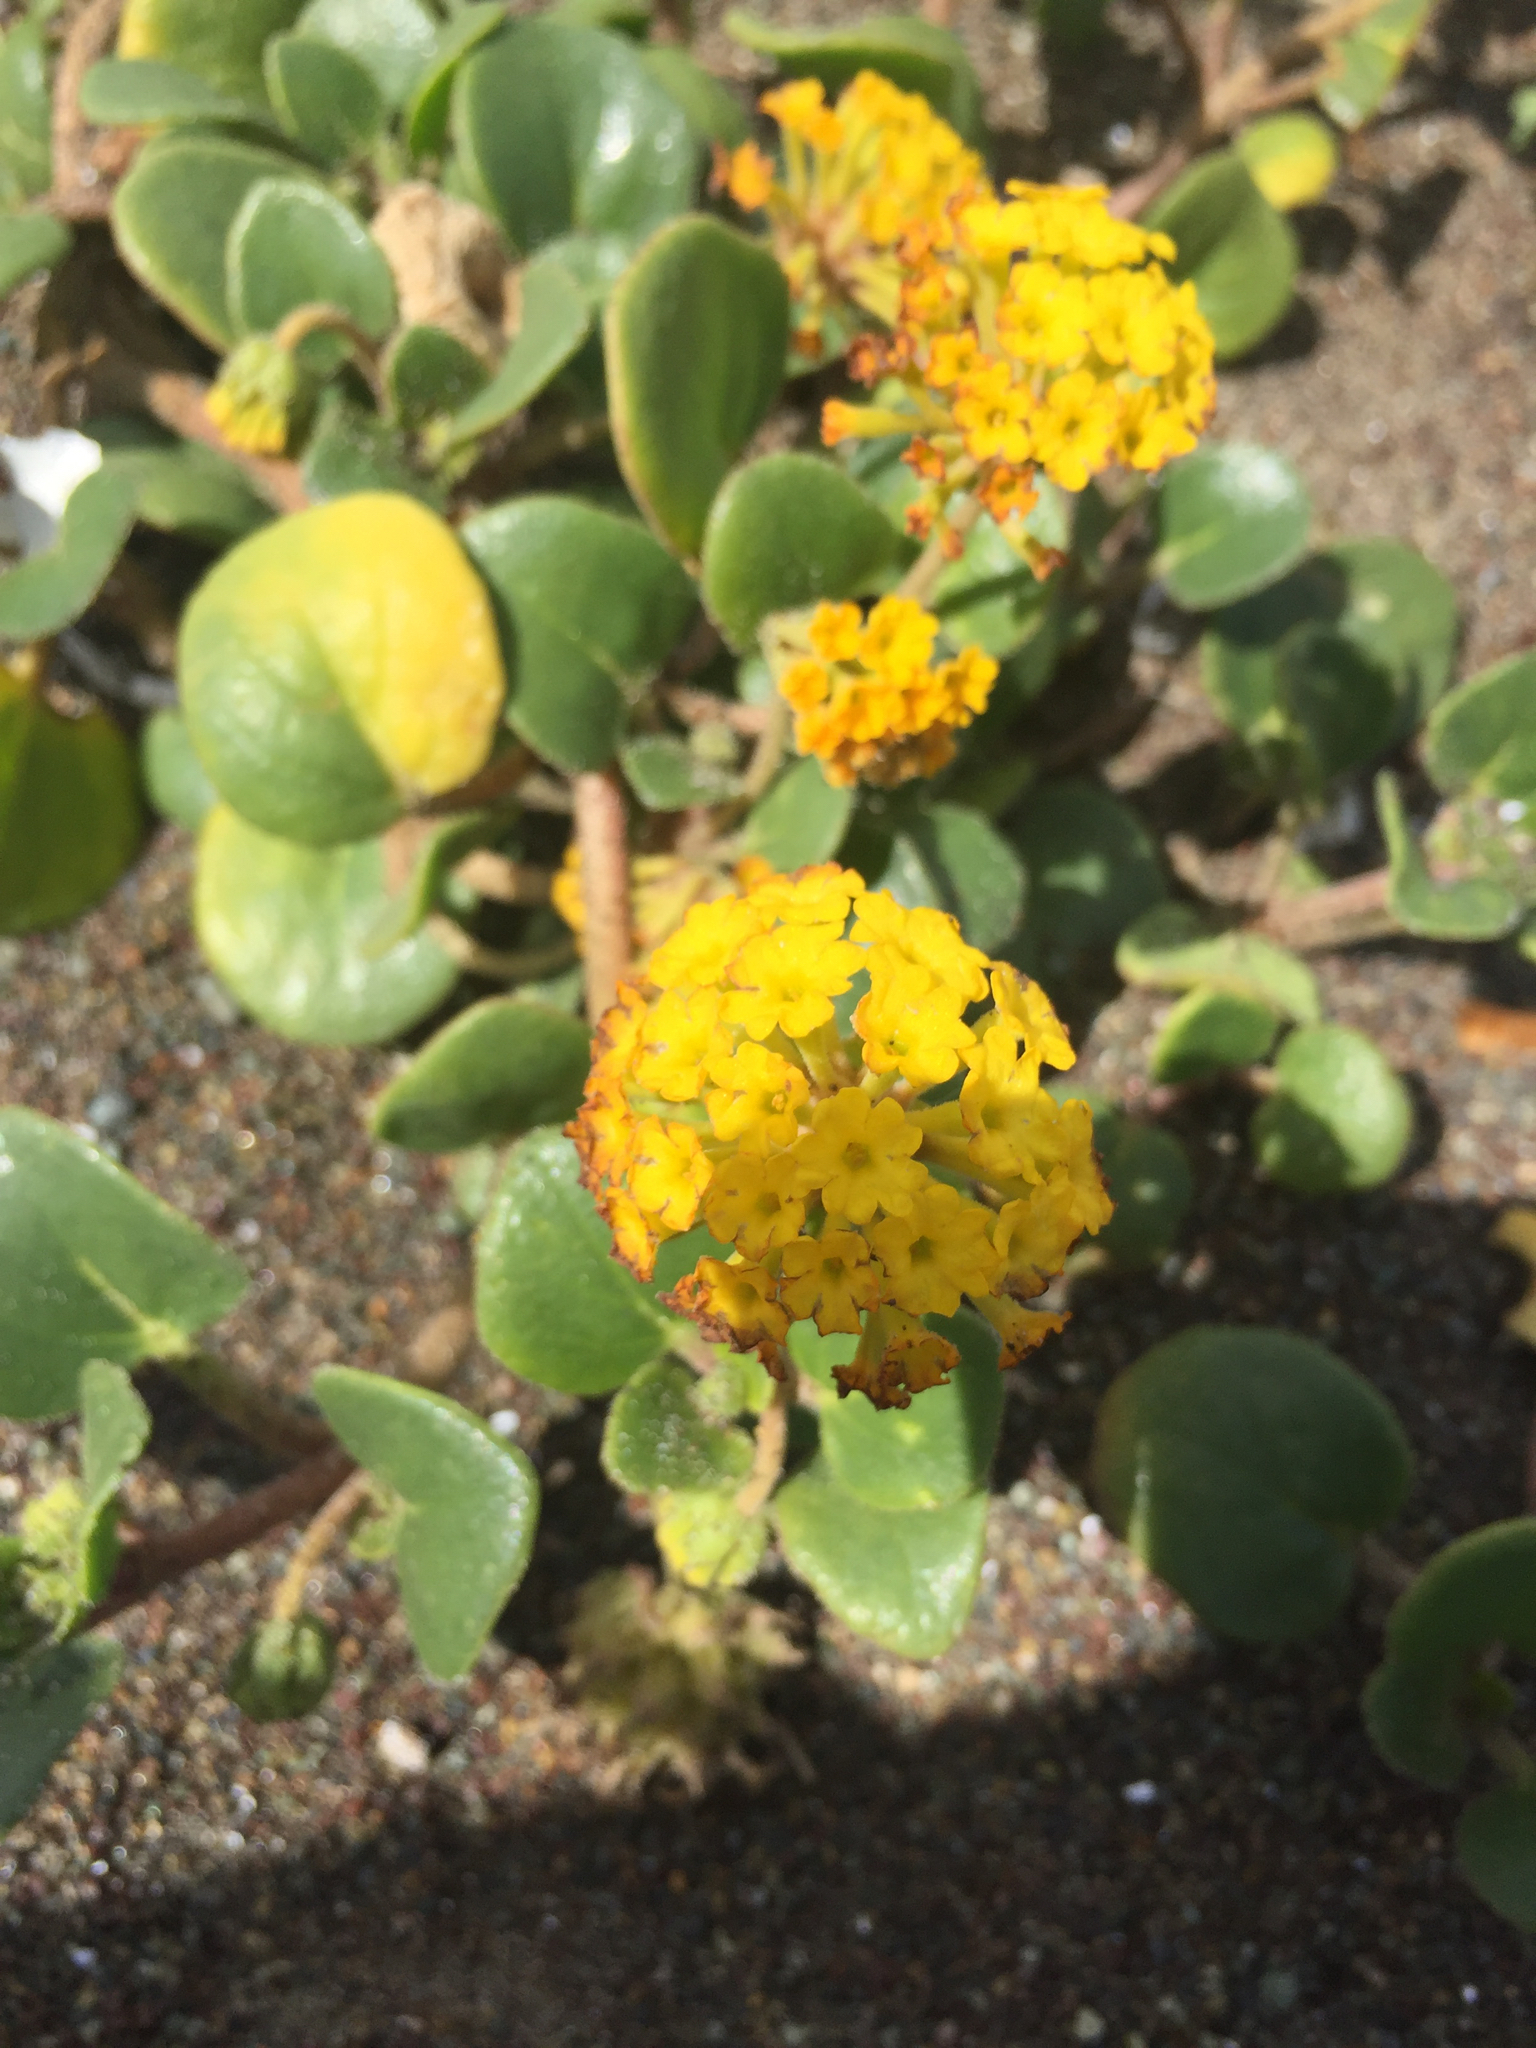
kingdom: Plantae
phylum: Tracheophyta
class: Magnoliopsida
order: Caryophyllales
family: Nyctaginaceae
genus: Abronia
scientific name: Abronia latifolia
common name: Yellow sand-verbena
